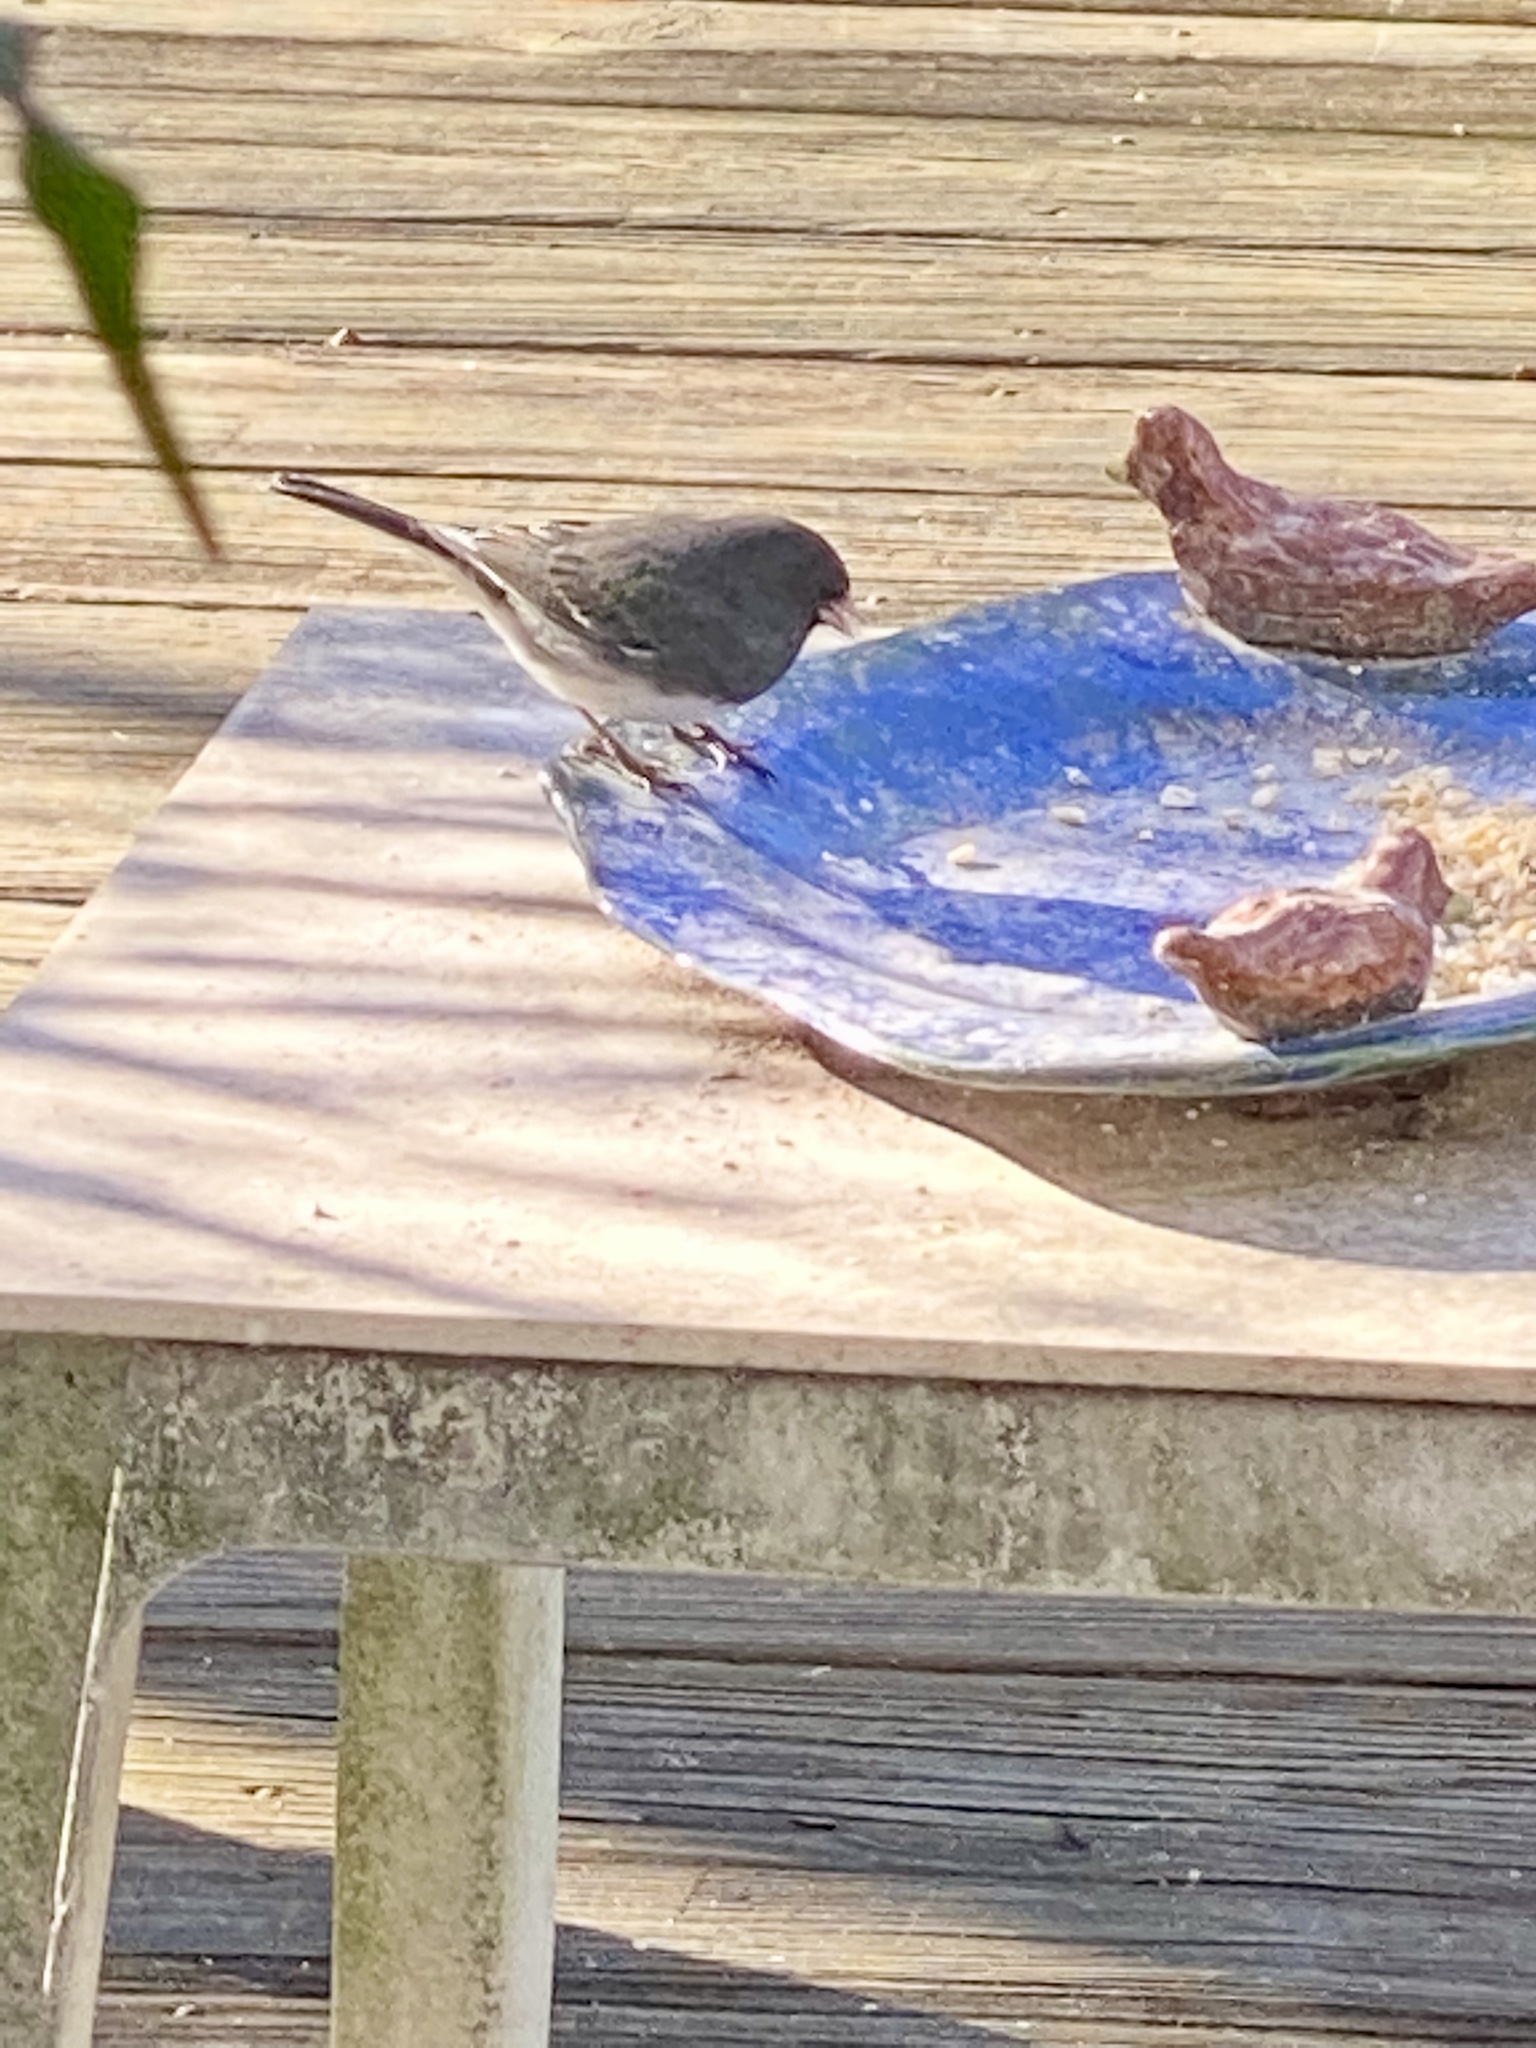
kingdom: Animalia
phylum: Chordata
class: Aves
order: Passeriformes
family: Passerellidae
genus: Junco
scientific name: Junco hyemalis
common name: Dark-eyed junco
